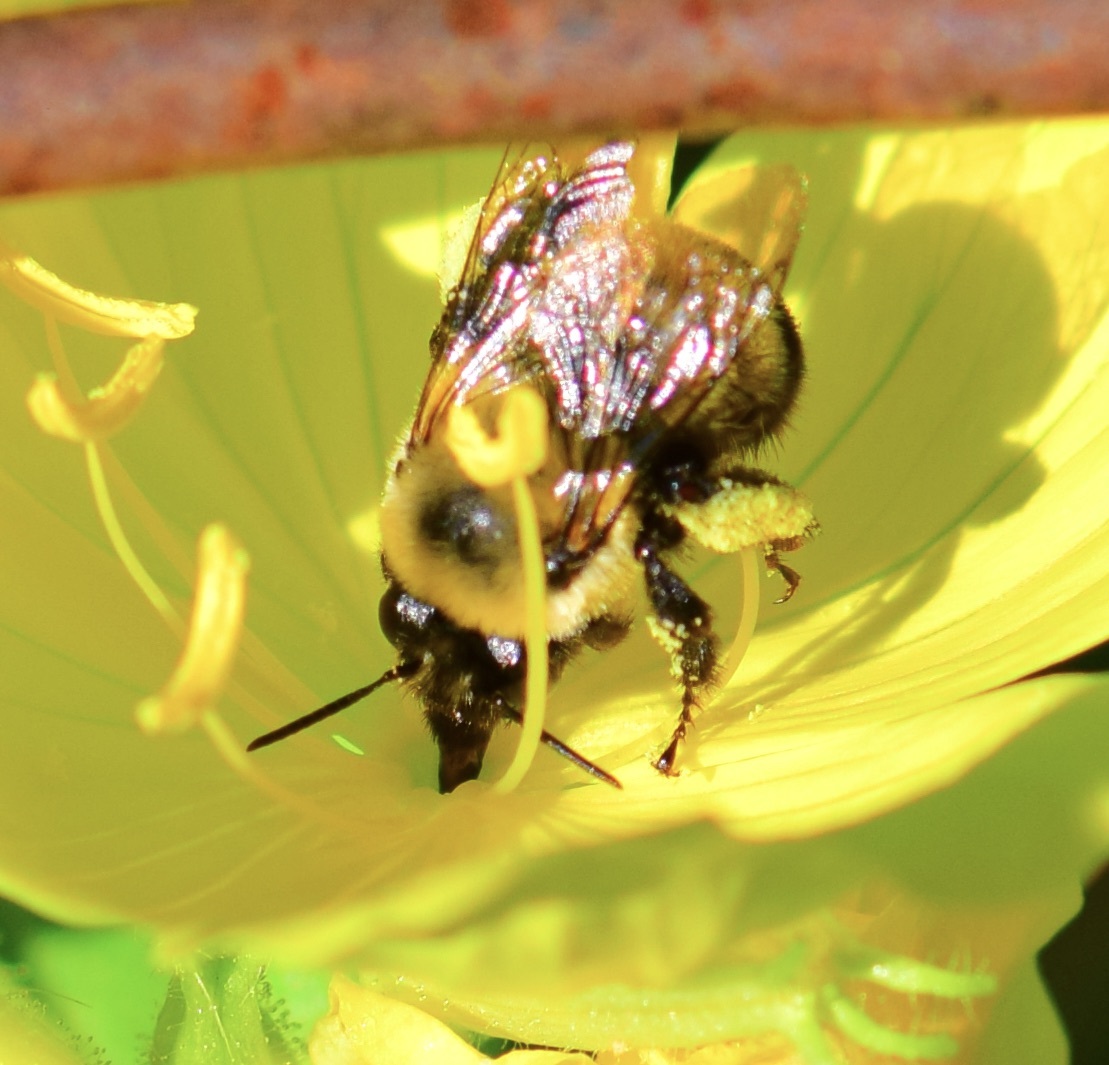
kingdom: Animalia
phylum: Arthropoda
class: Insecta
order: Hymenoptera
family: Apidae
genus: Anthophora
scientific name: Anthophora bomboides
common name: Bumble-bee-mimic digger bee
